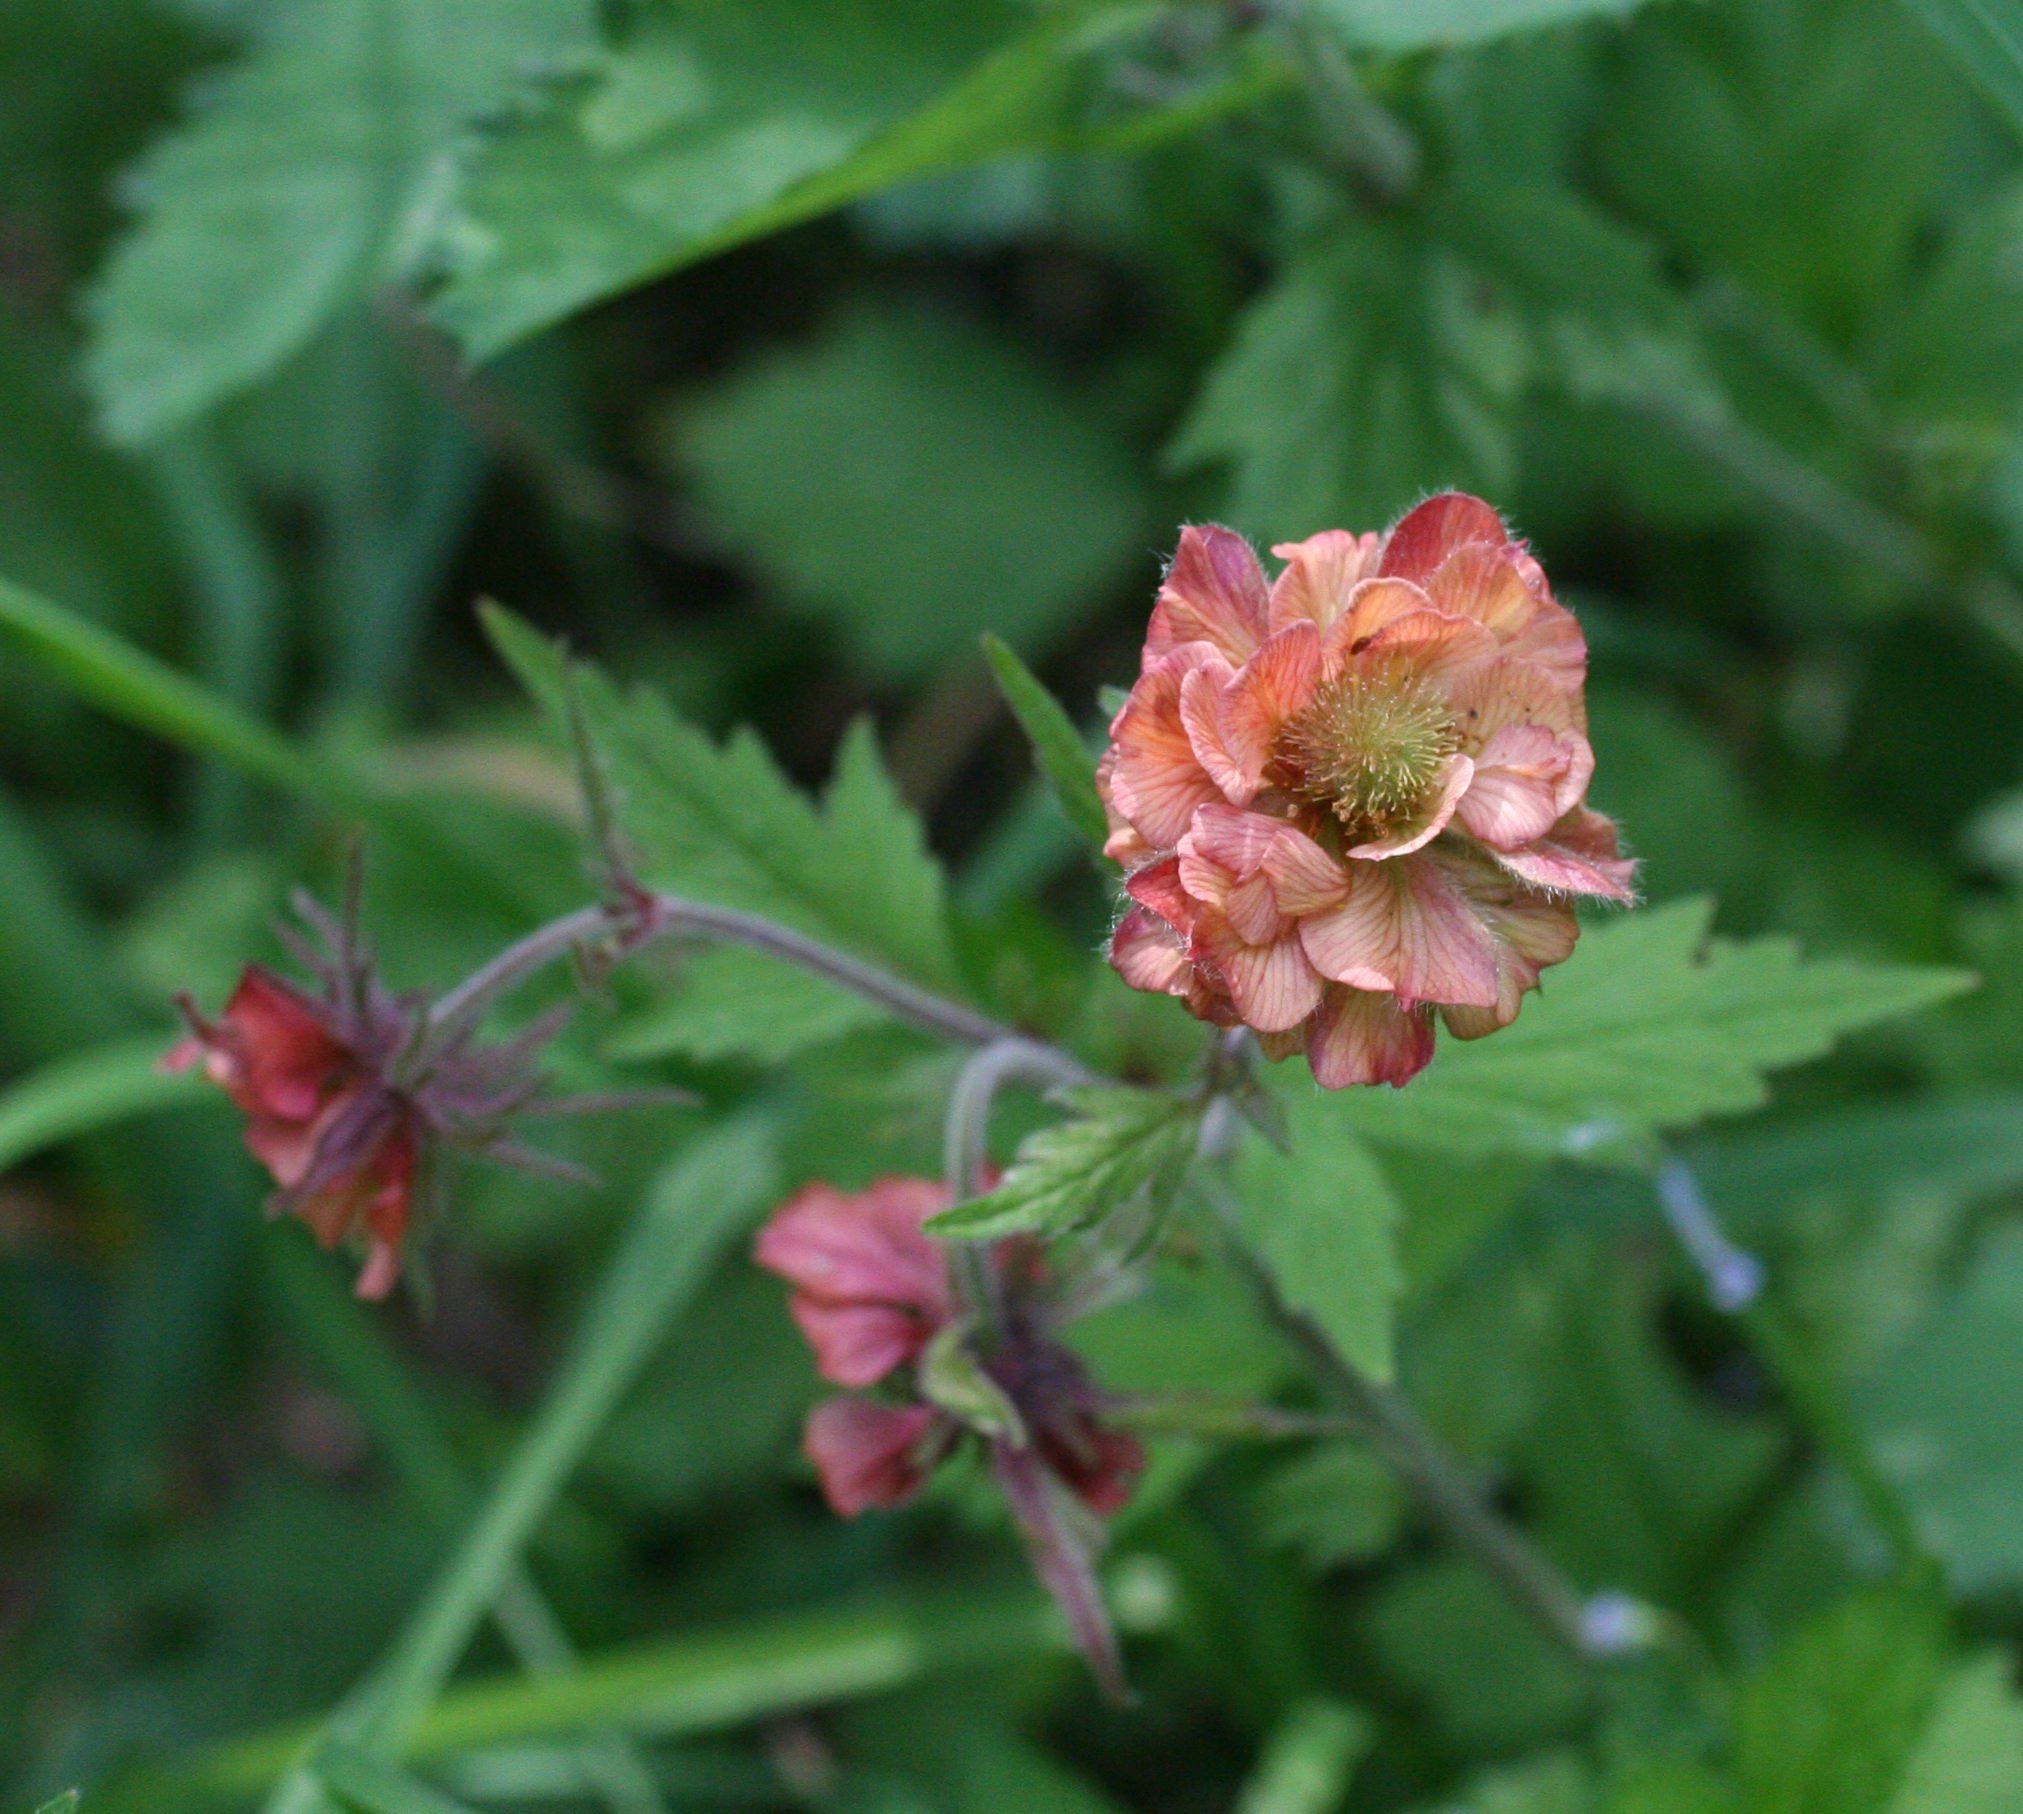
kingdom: Plantae
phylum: Tracheophyta
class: Magnoliopsida
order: Rosales
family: Rosaceae
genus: Geum
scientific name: Geum rivale
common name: Water avens
